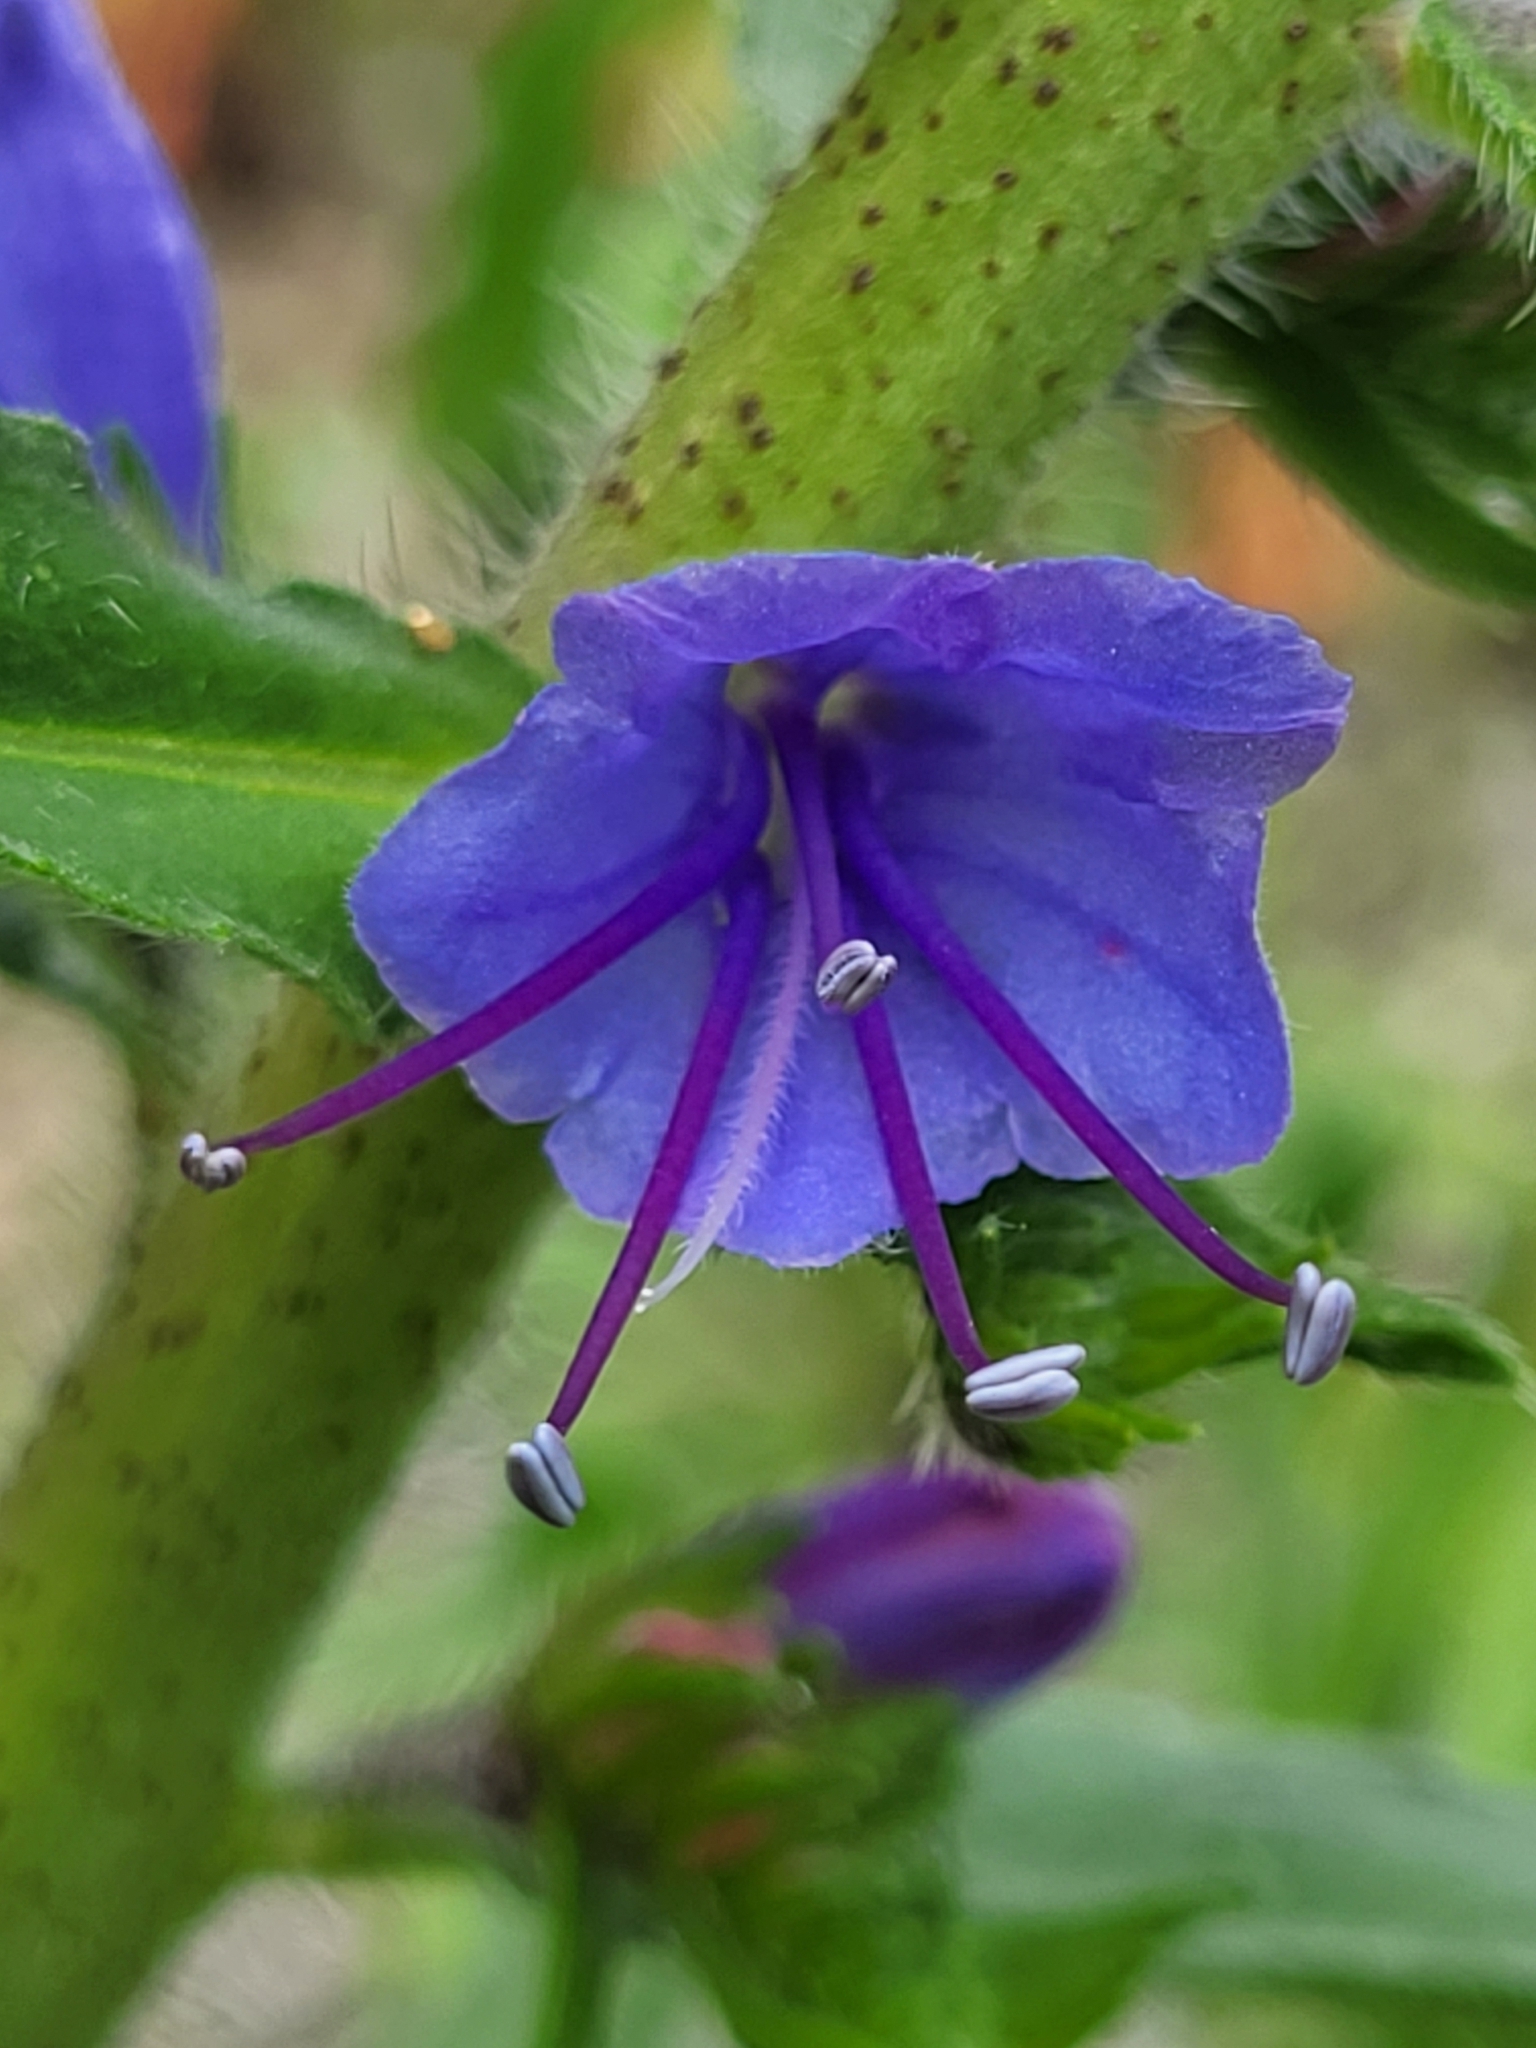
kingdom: Plantae
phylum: Tracheophyta
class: Magnoliopsida
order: Boraginales
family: Boraginaceae
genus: Echium
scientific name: Echium vulgare
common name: Common viper's bugloss
